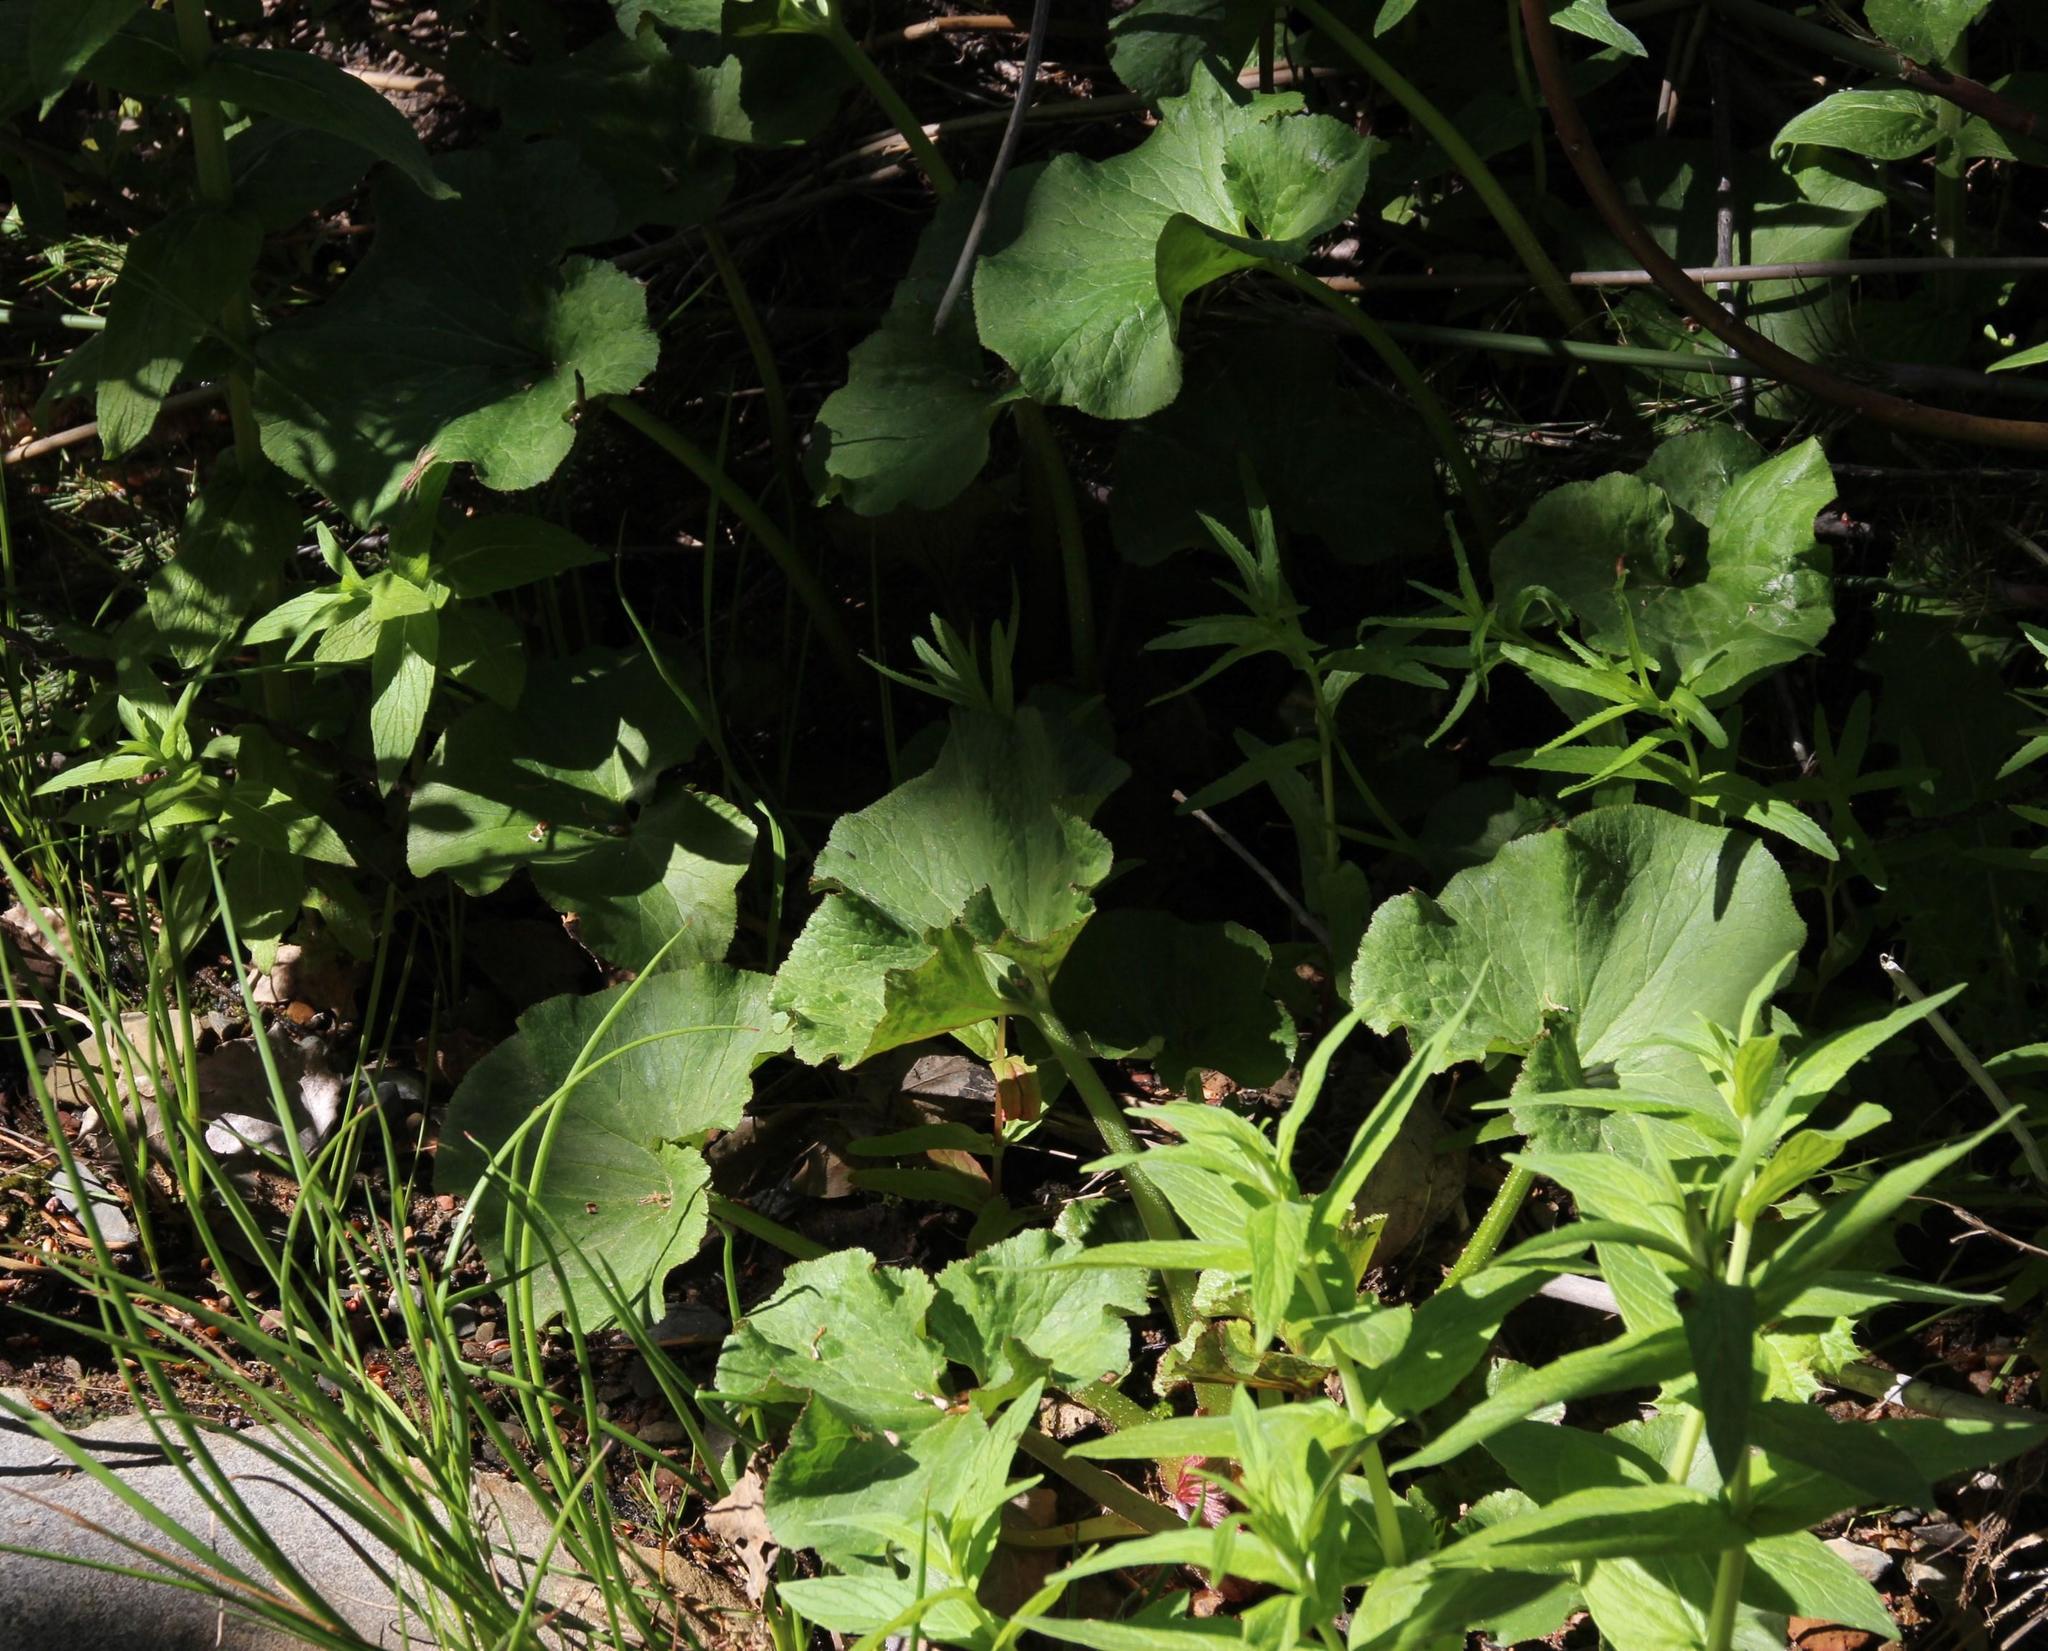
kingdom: Plantae
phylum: Tracheophyta
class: Magnoliopsida
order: Gunnerales
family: Gunneraceae
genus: Gunnera
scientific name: Gunnera perpensa
